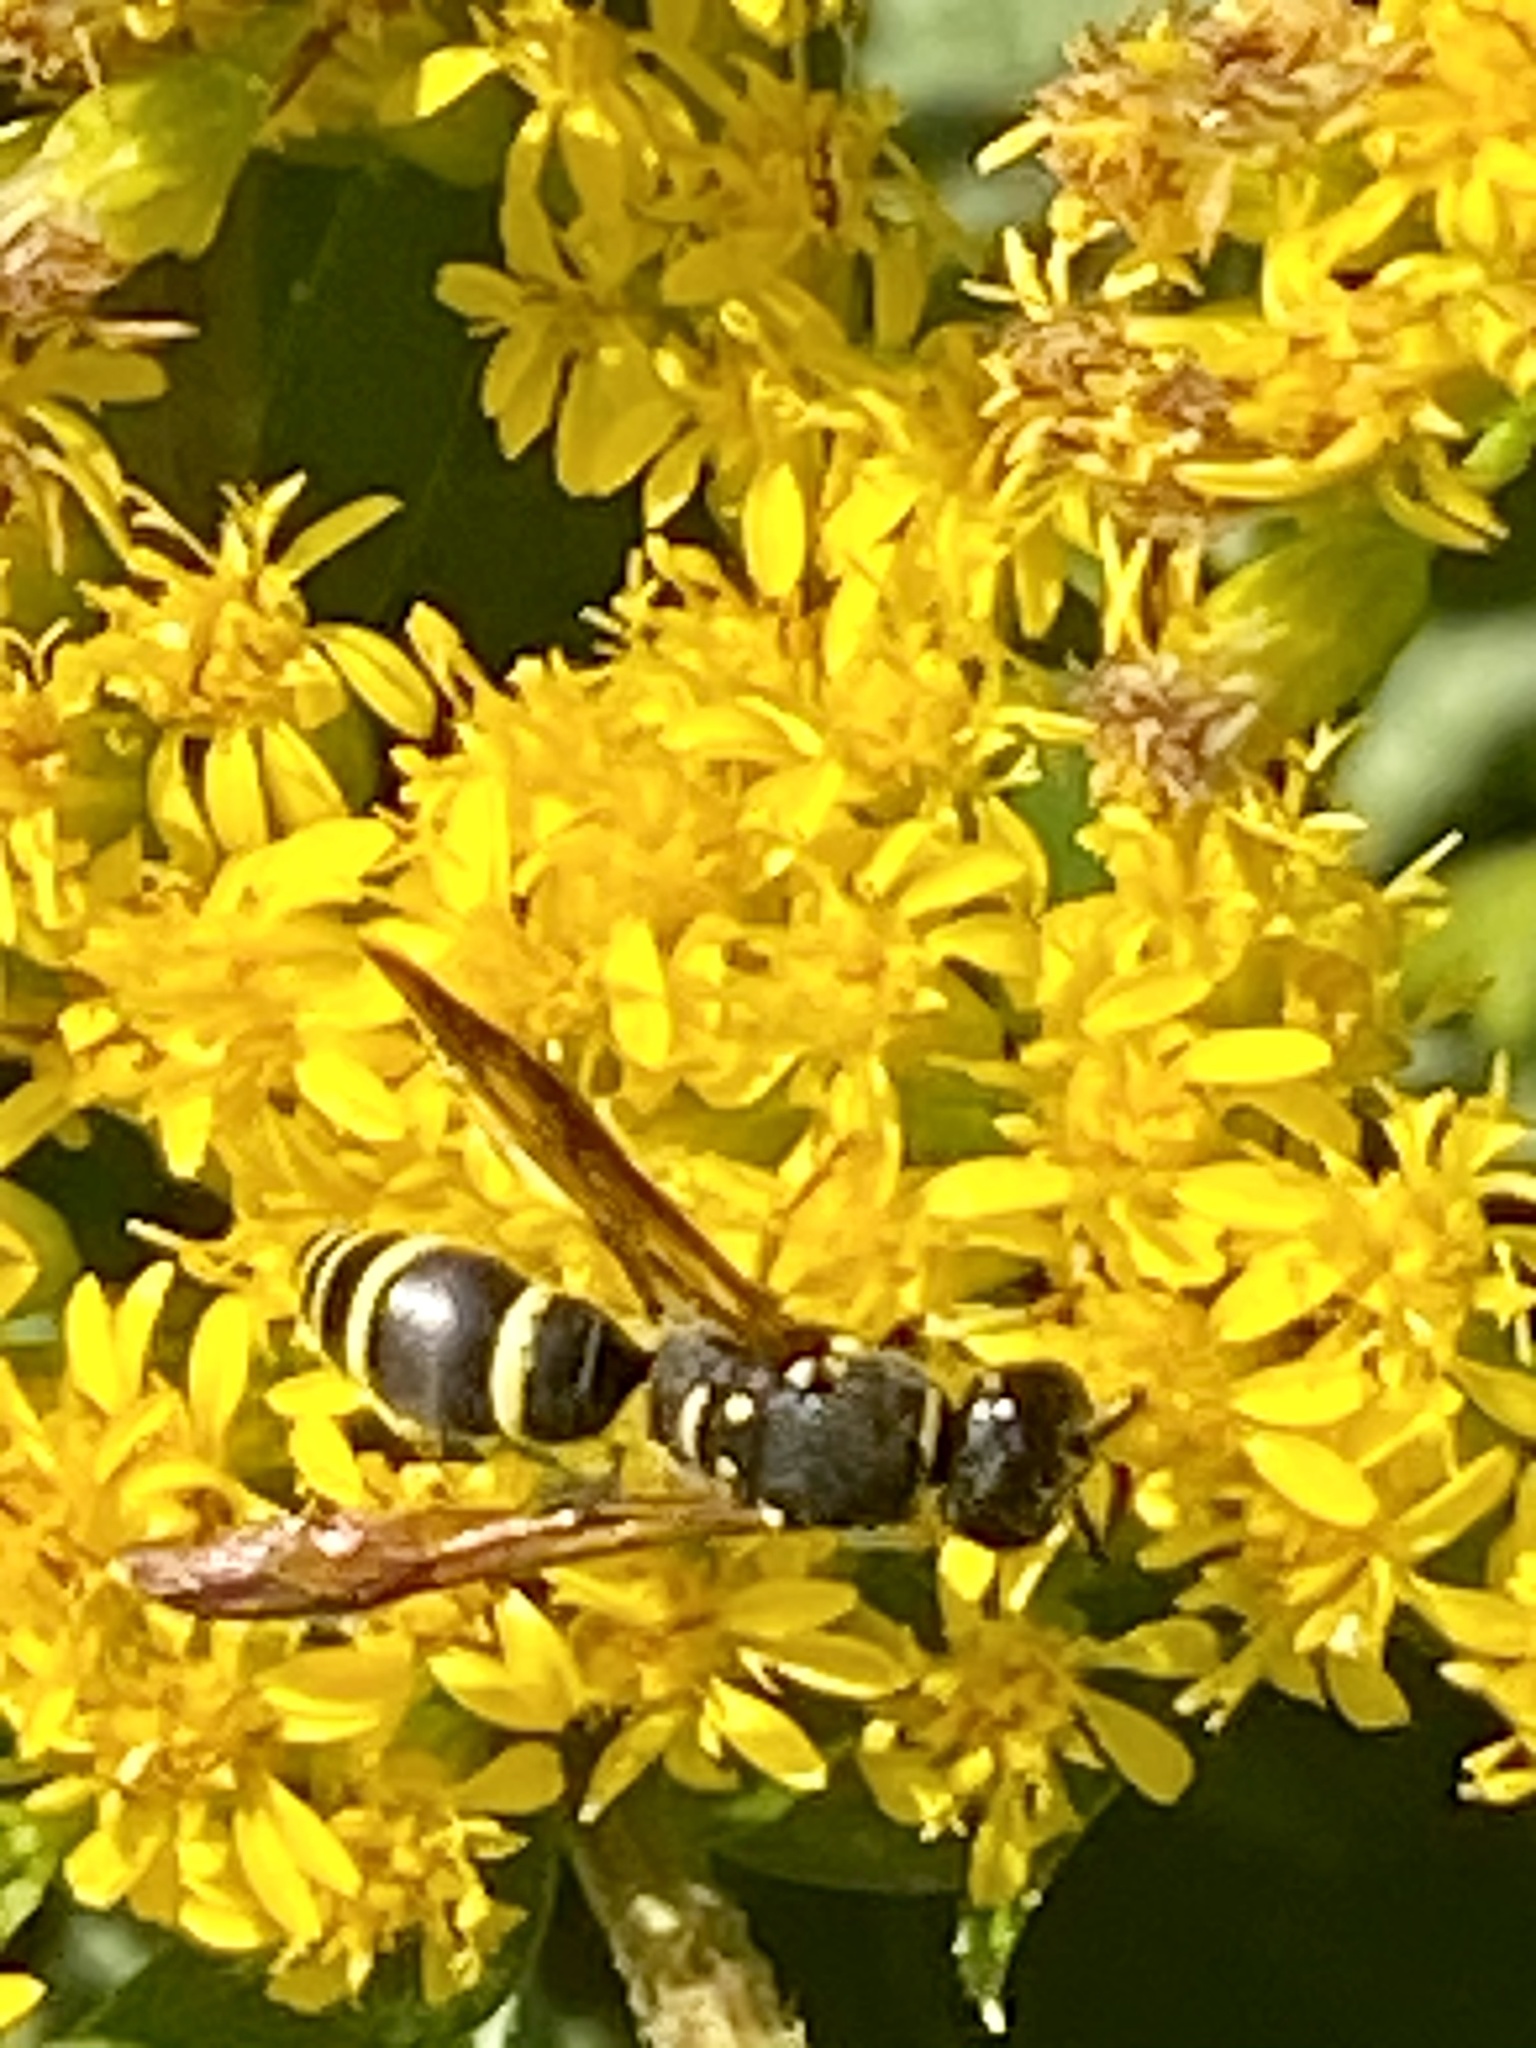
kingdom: Animalia
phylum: Arthropoda
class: Insecta
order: Hymenoptera
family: Vespidae
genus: Ancistrocerus
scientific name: Ancistrocerus adiabatus
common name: Bramble mason wasp
